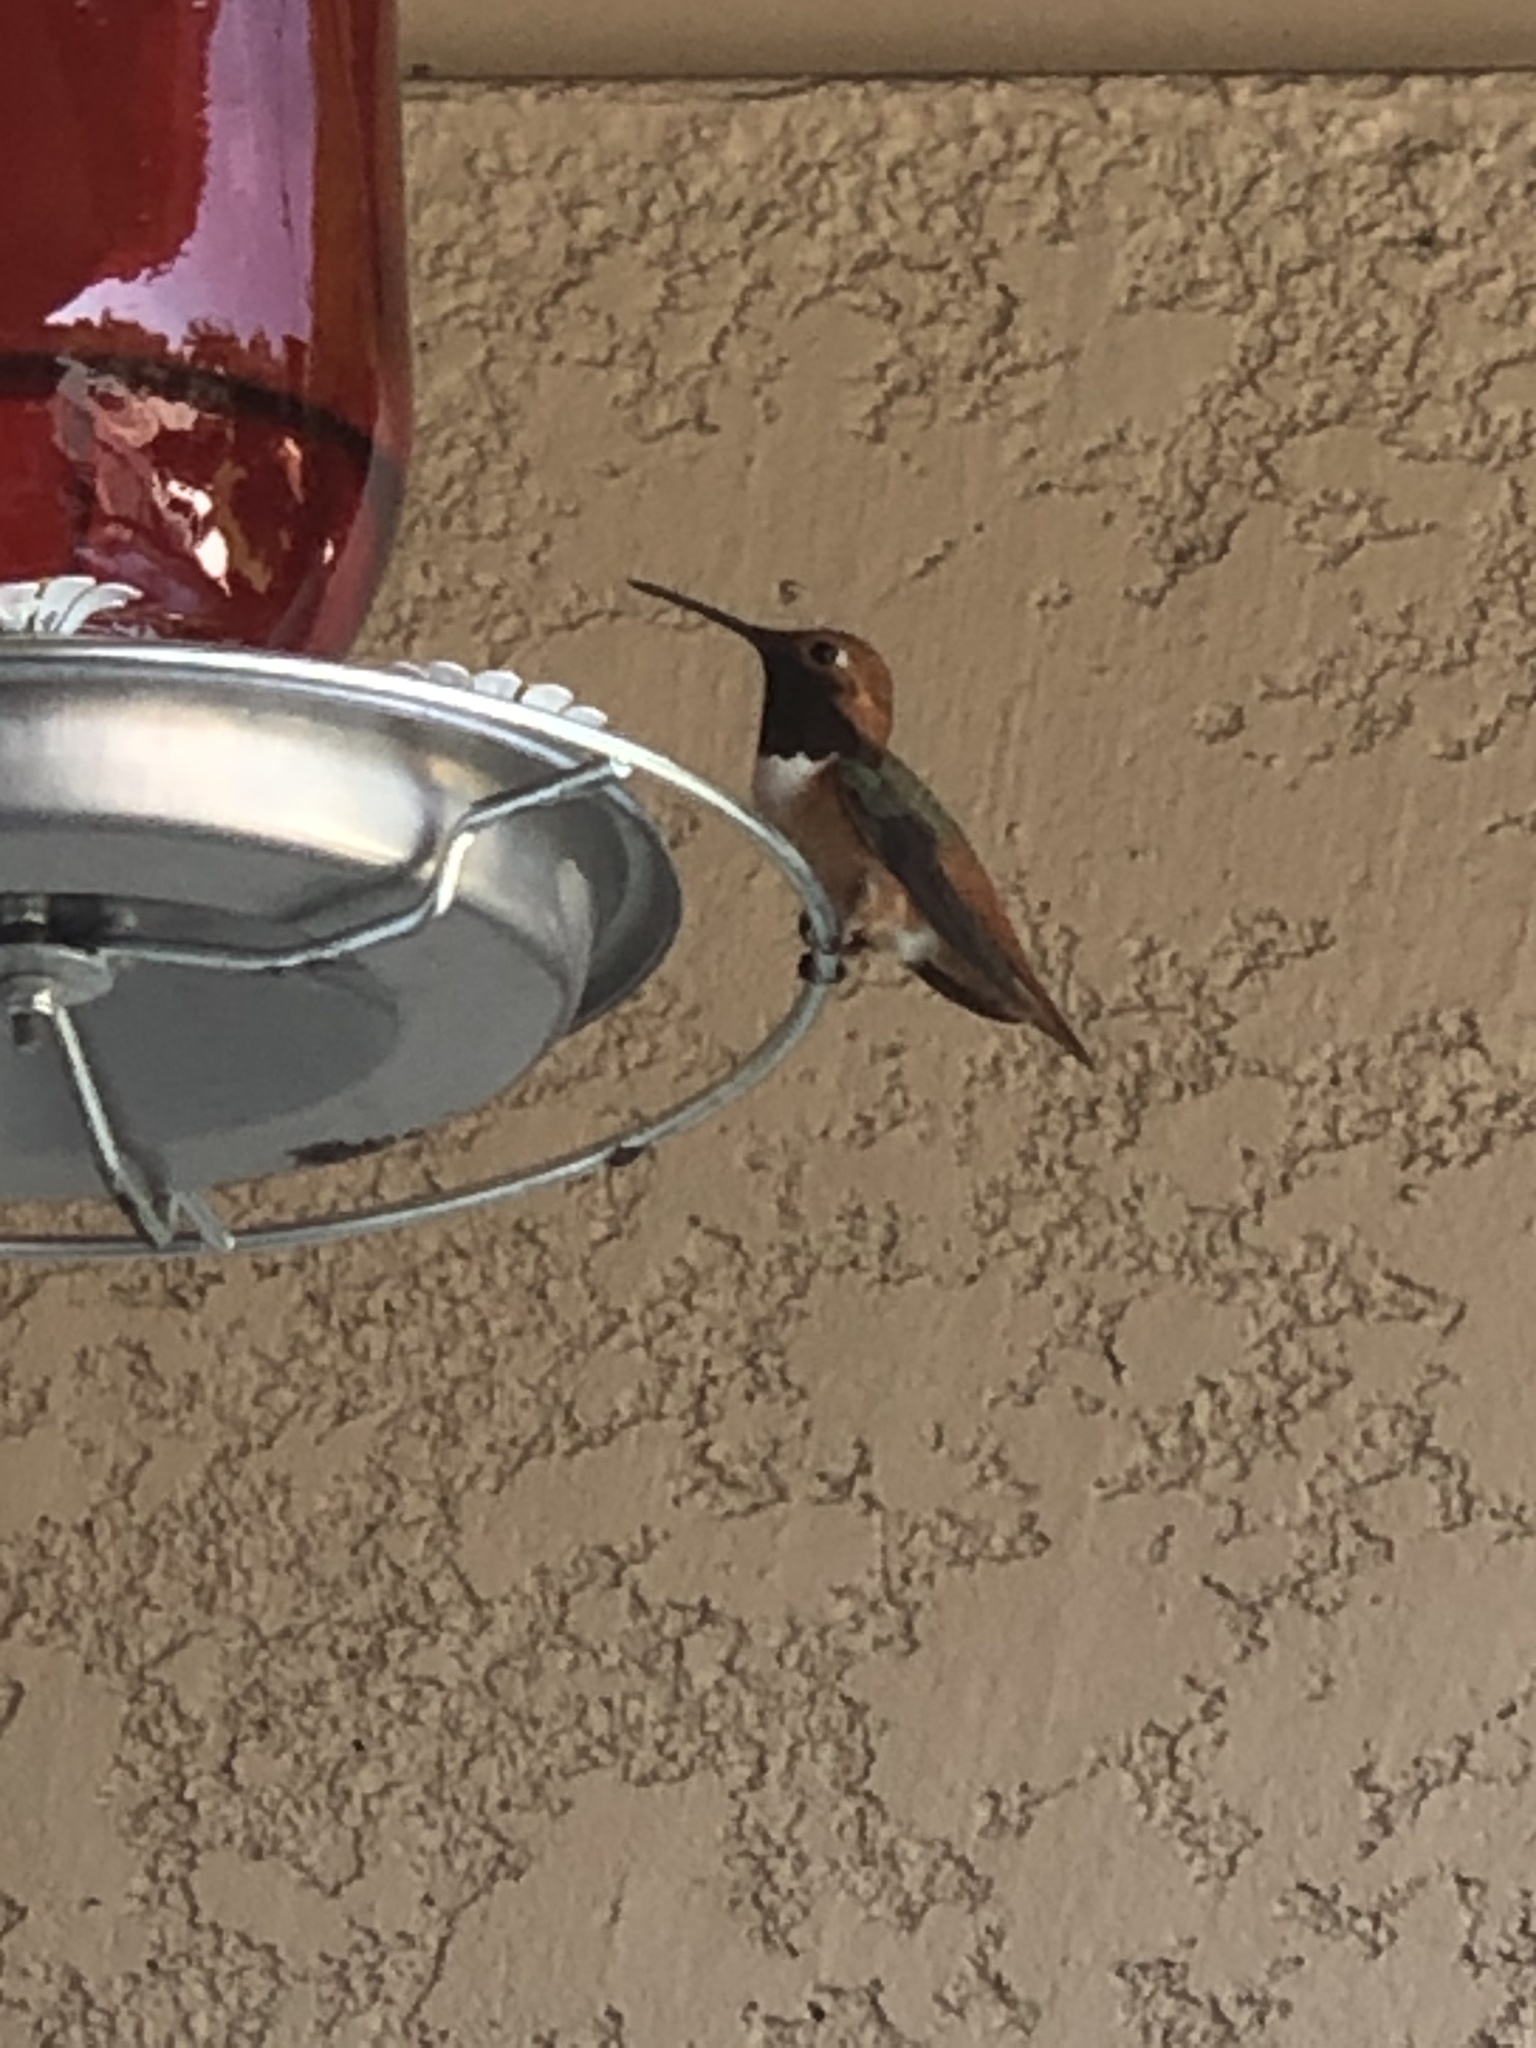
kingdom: Animalia
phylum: Chordata
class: Aves
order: Apodiformes
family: Trochilidae
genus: Selasphorus
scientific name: Selasphorus sasin
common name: Allen's hummingbird
